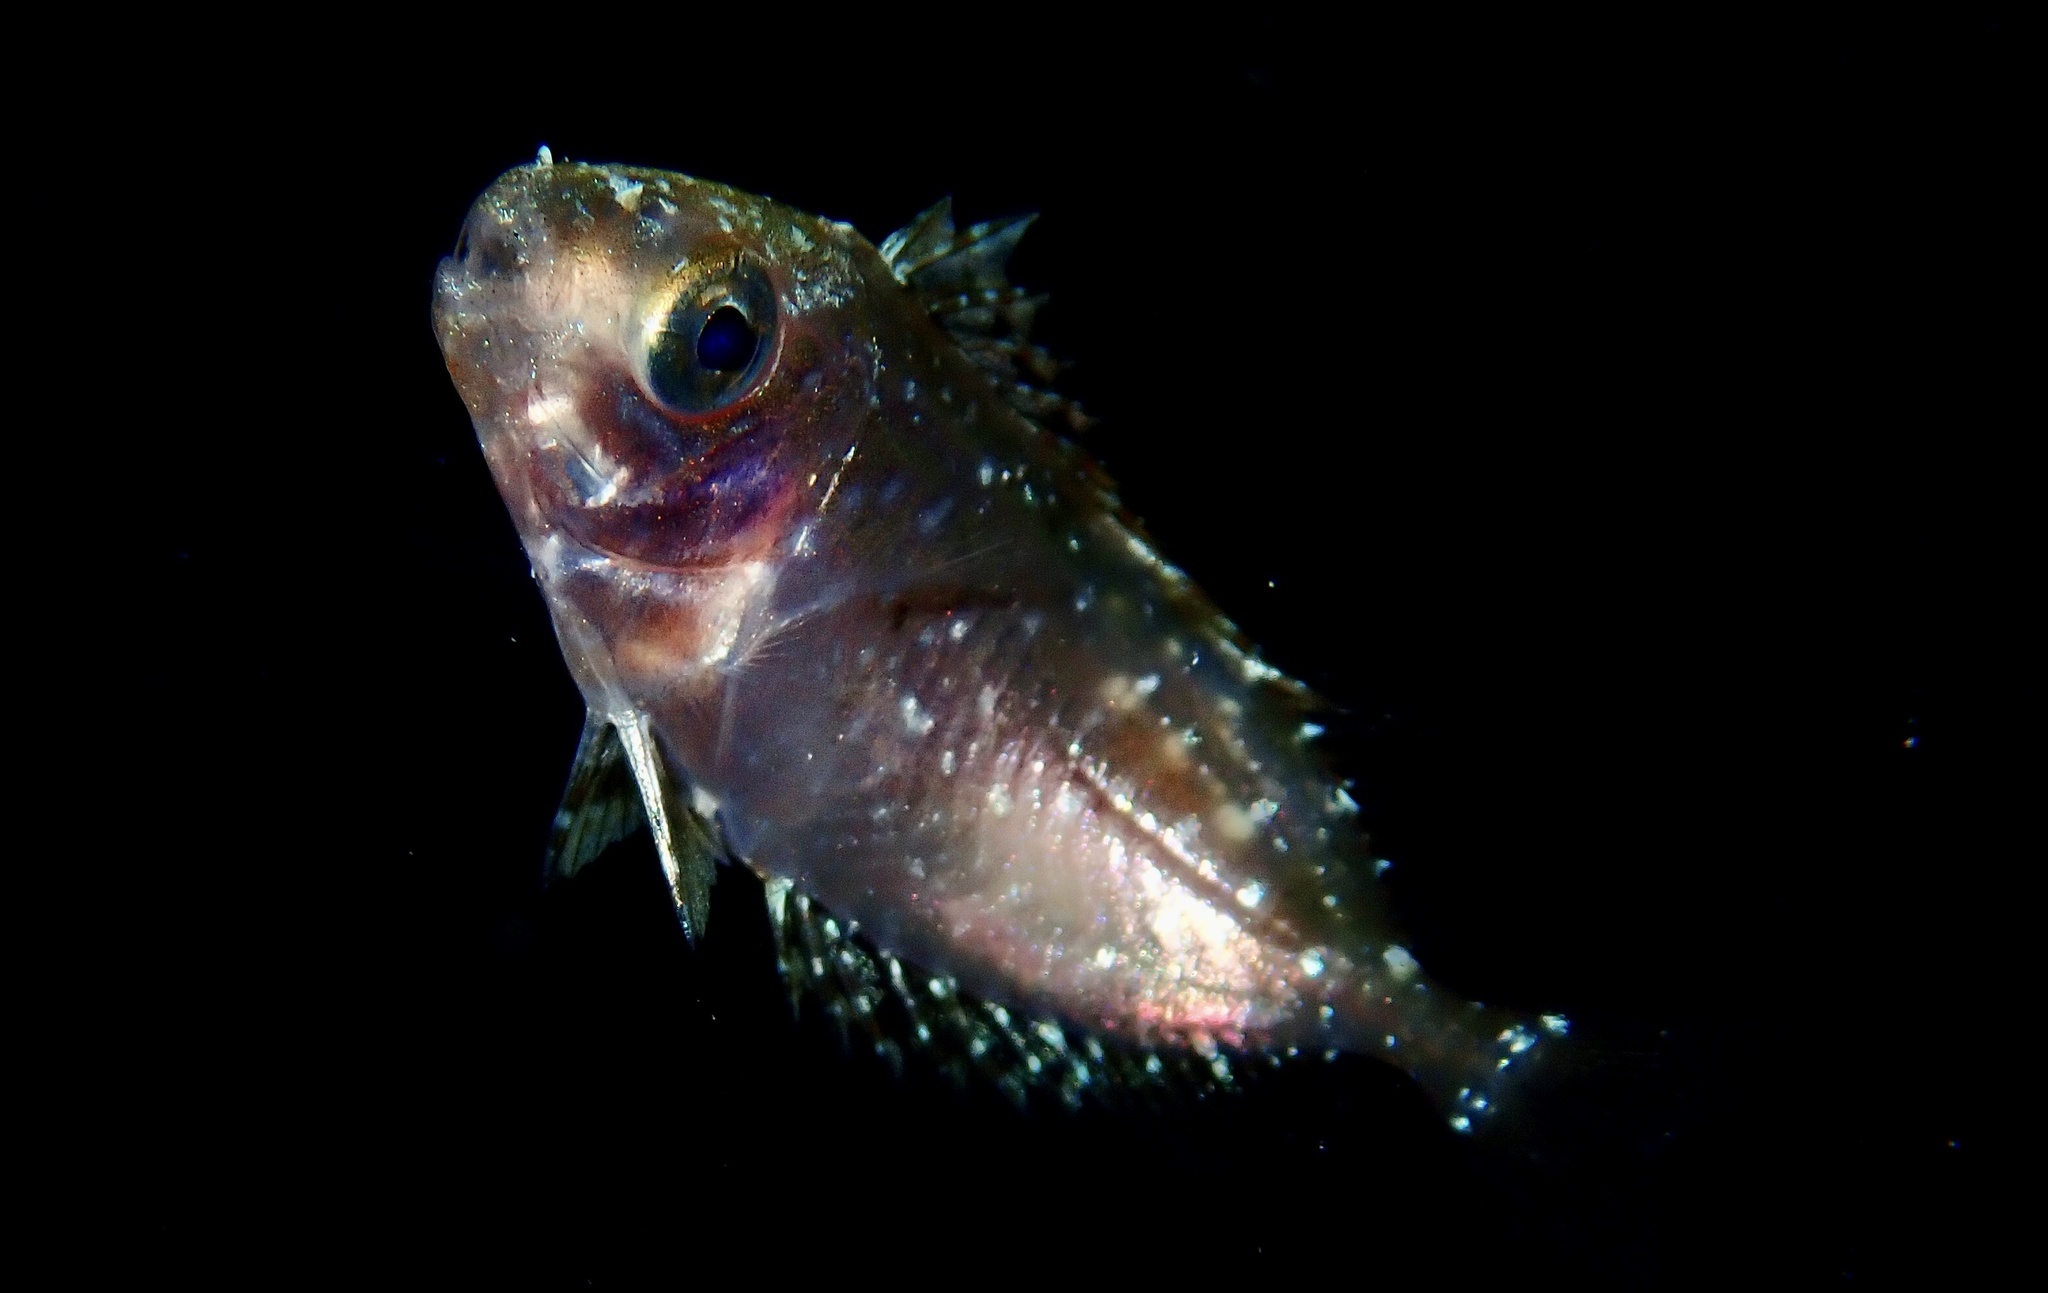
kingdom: Animalia
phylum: Chordata
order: Perciformes
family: Siganidae
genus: Siganus
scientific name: Siganus
